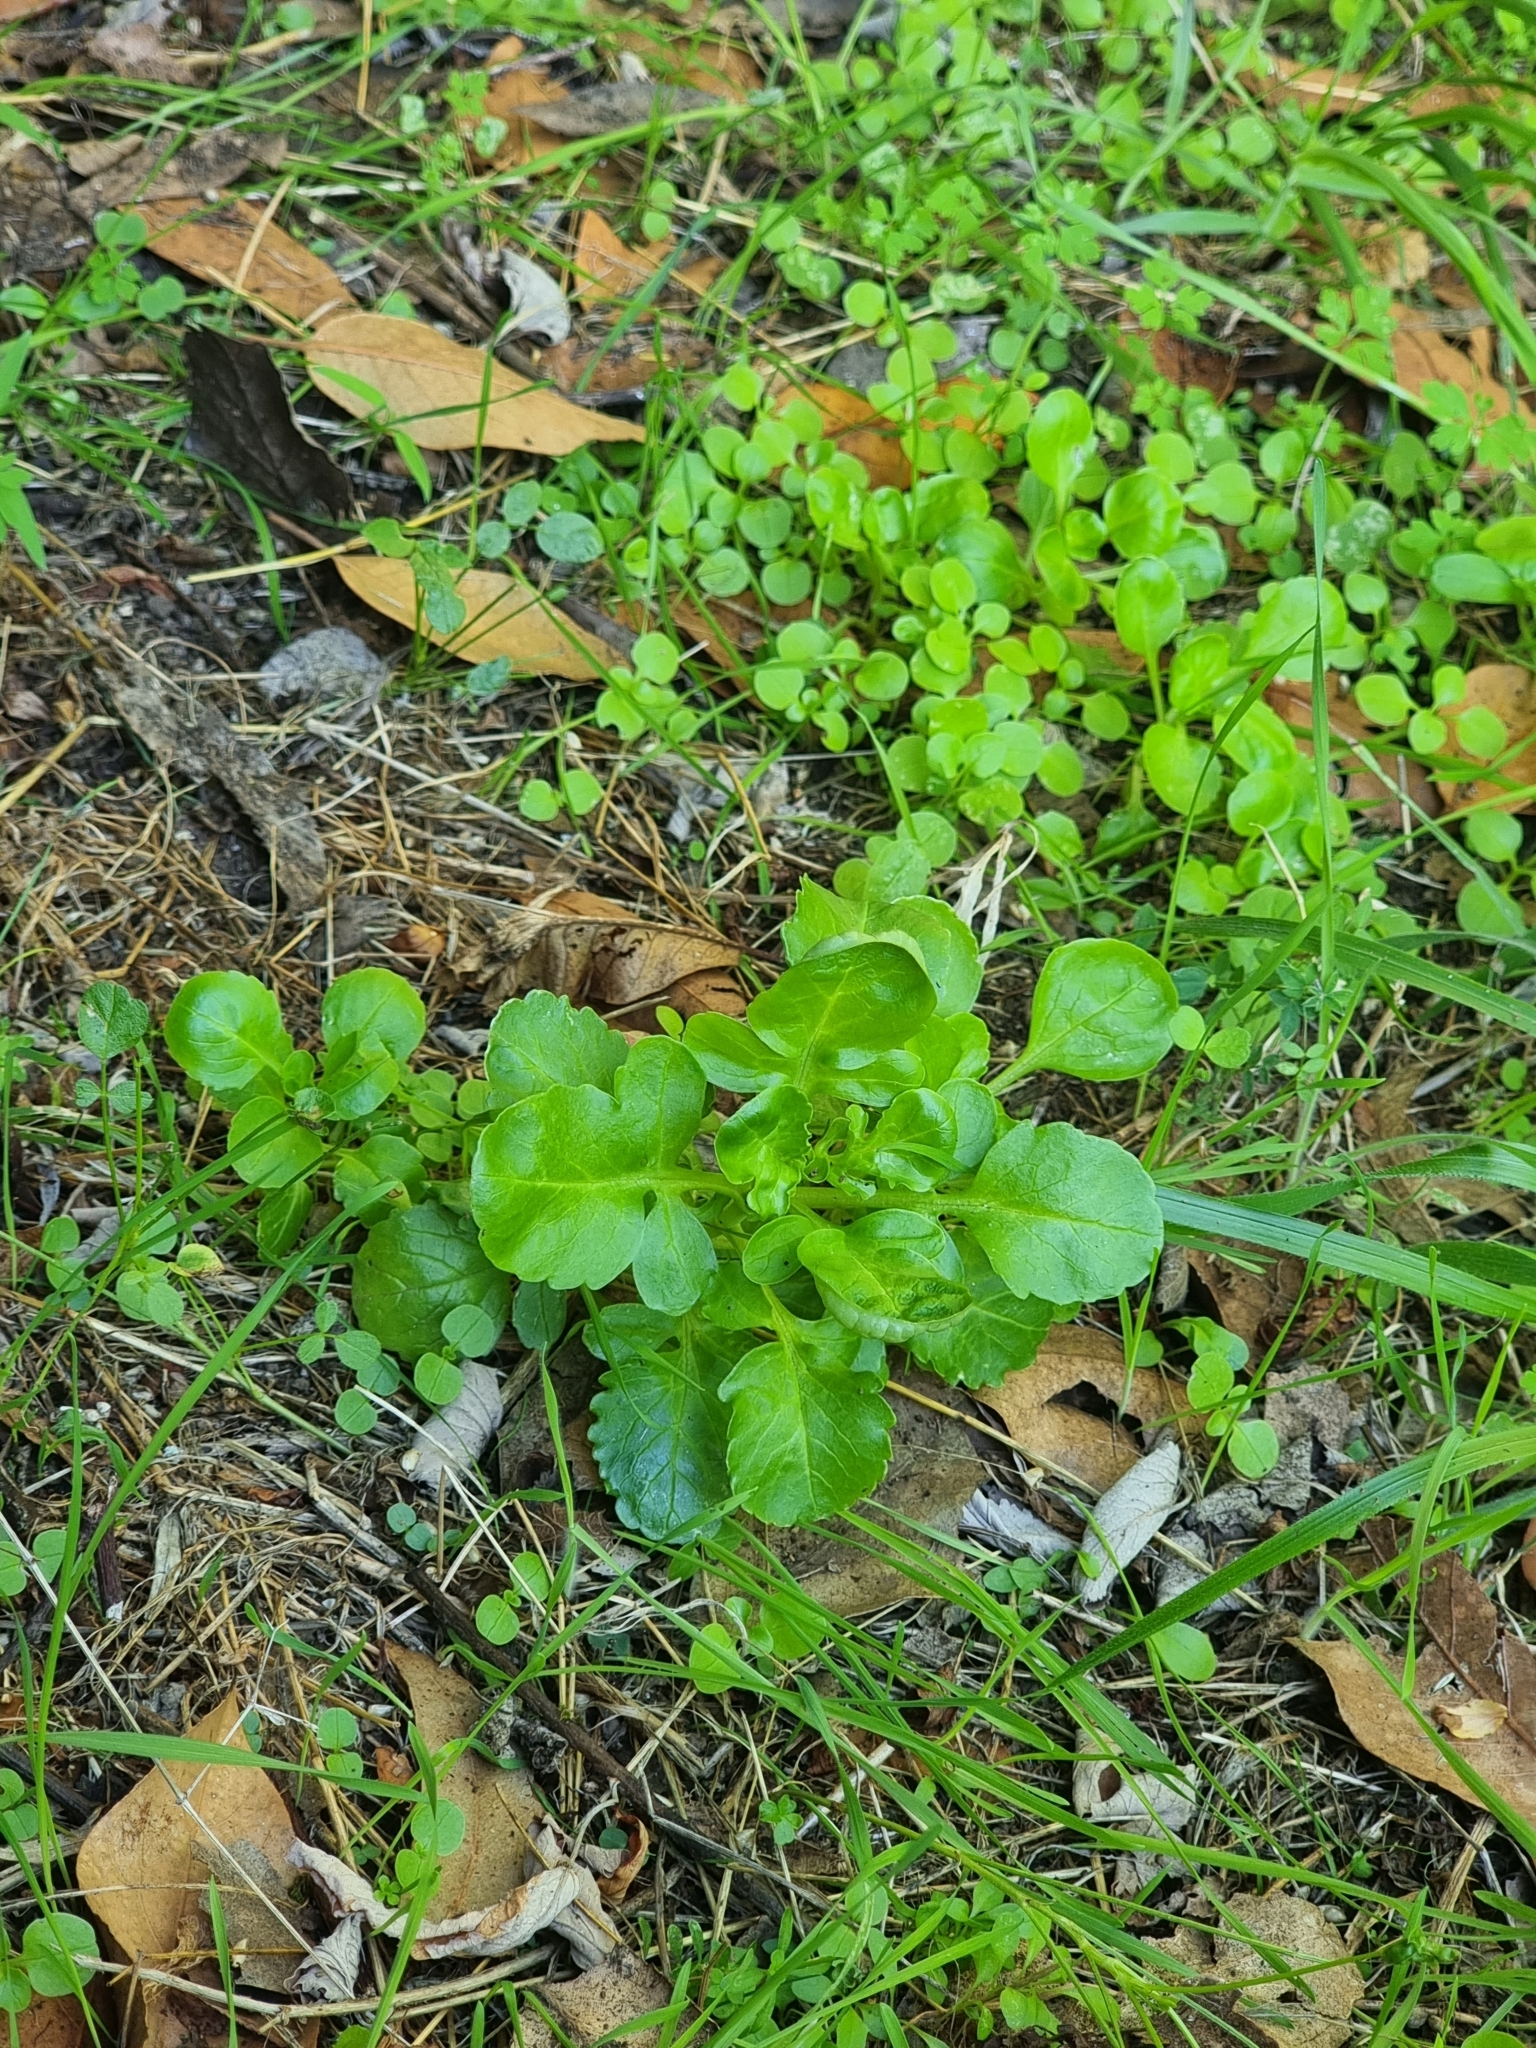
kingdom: Plantae
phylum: Tracheophyta
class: Magnoliopsida
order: Dipsacales
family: Caprifoliaceae
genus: Centranthus
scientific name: Centranthus calcitrapae
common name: Annual valerian
